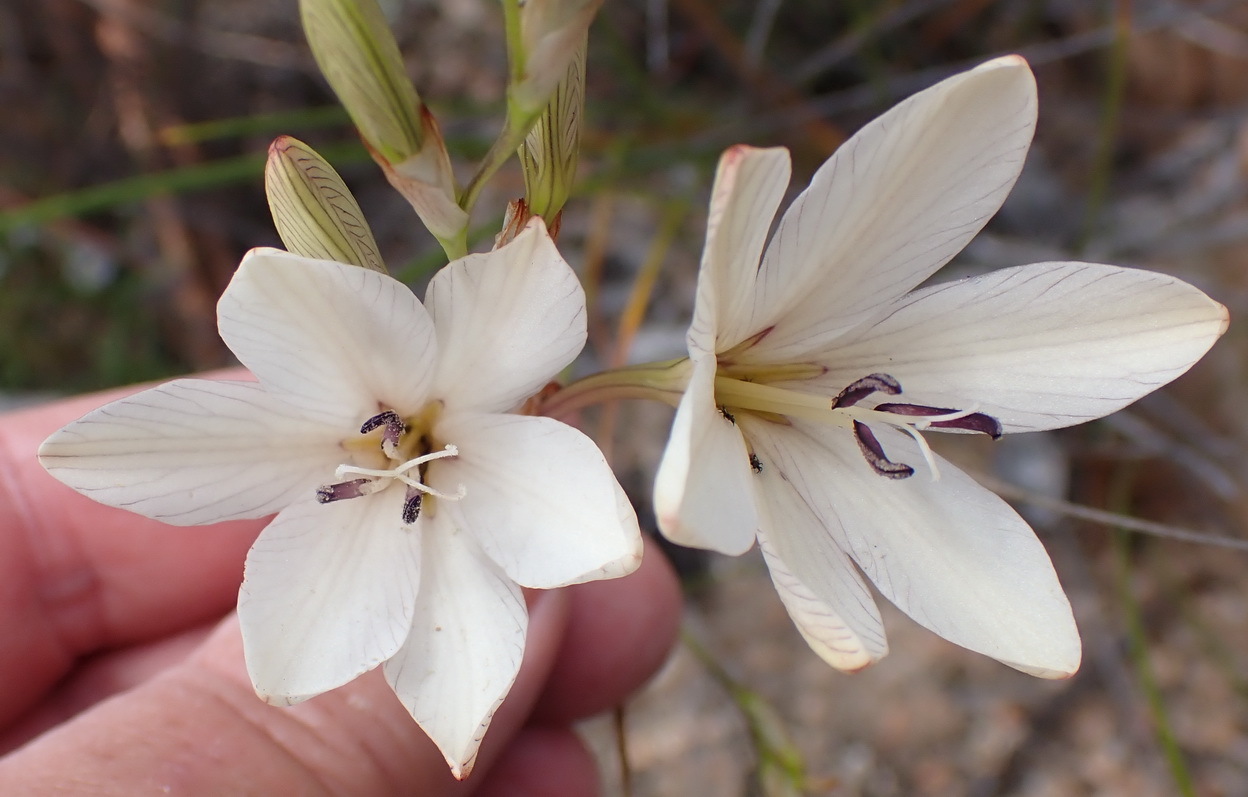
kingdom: Plantae
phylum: Tracheophyta
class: Liliopsida
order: Asparagales
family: Iridaceae
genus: Tritonia
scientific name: Tritonia bakeri
